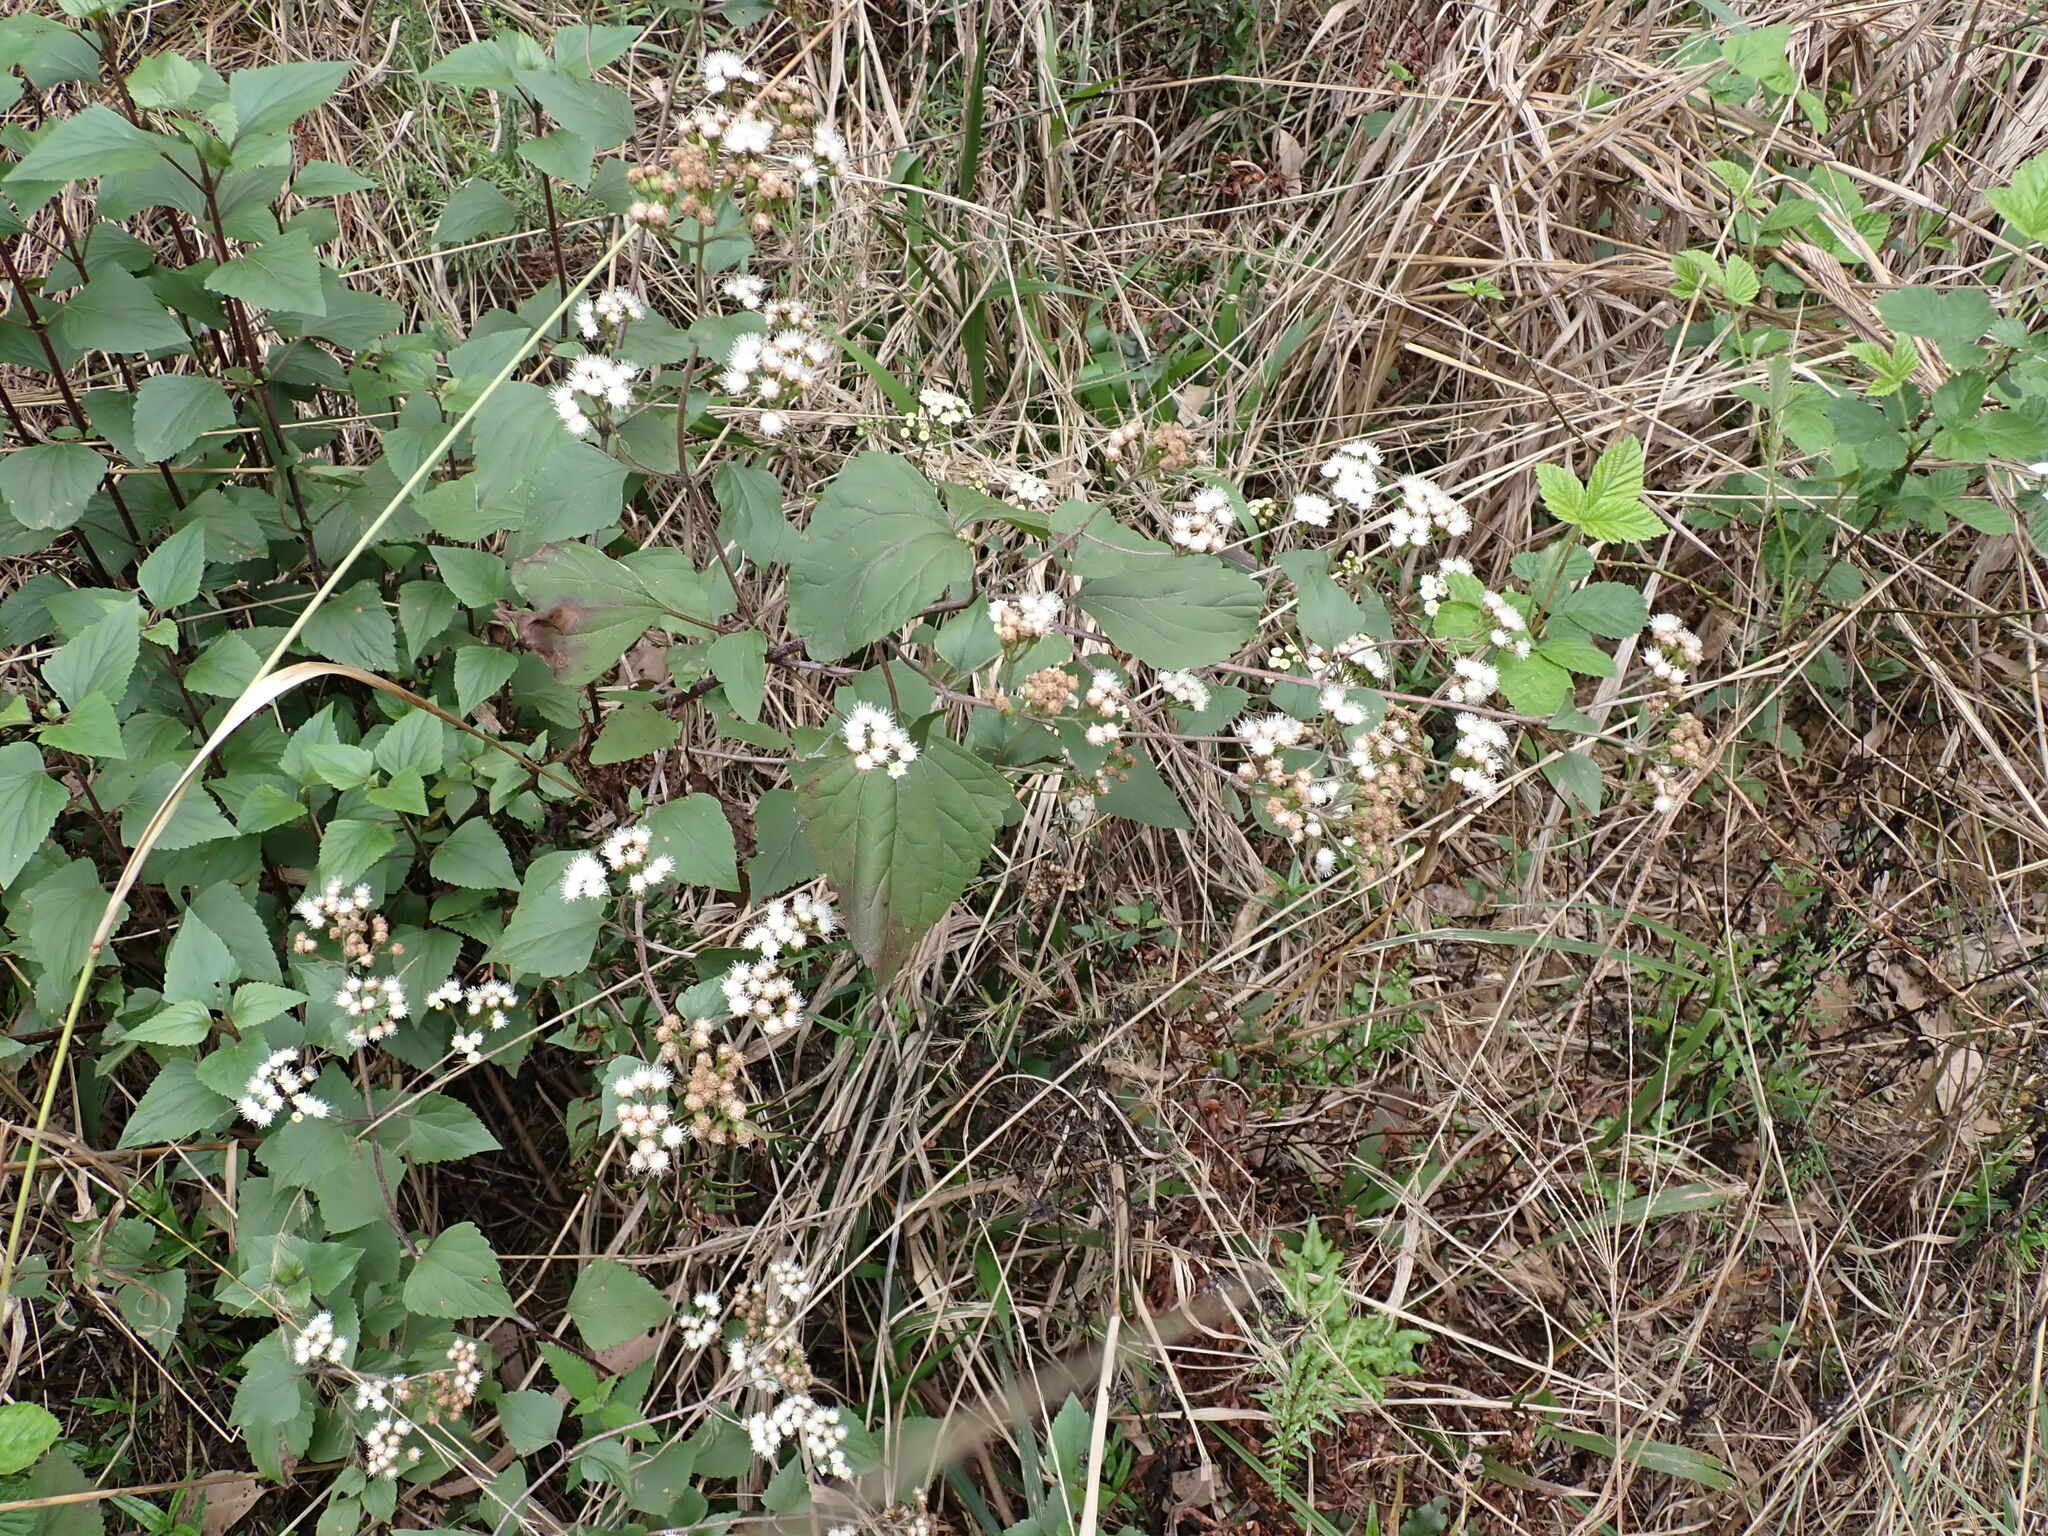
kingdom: Plantae
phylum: Tracheophyta
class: Magnoliopsida
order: Asterales
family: Asteraceae
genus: Ageratina
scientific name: Ageratina adenophora
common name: Sticky snakeroot
